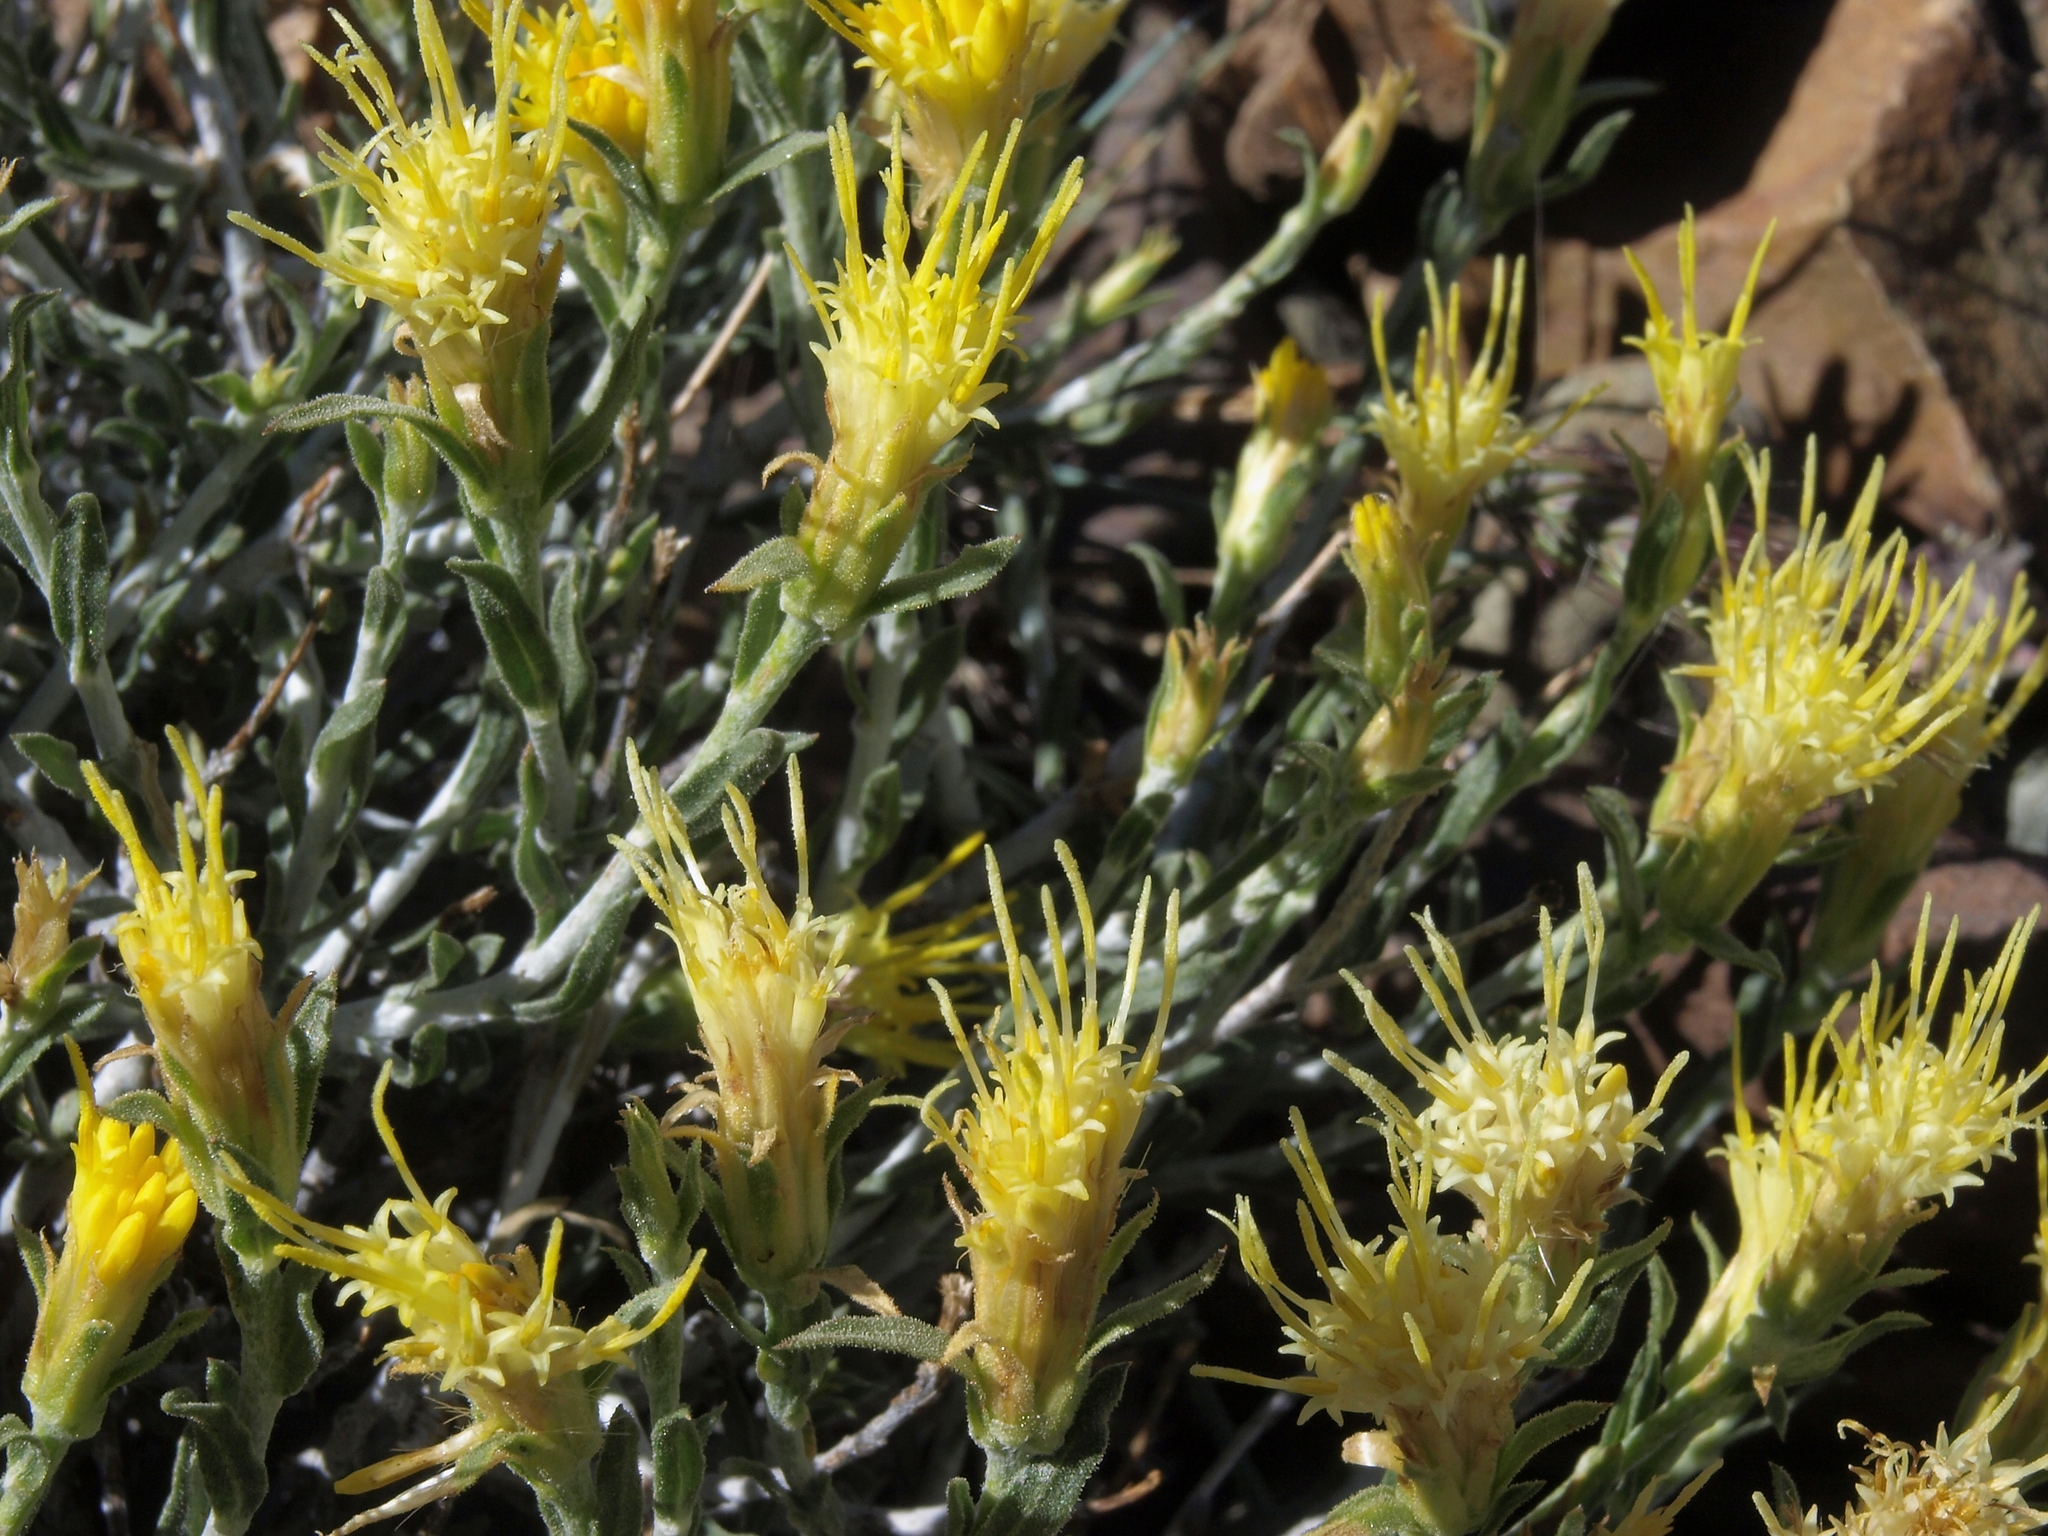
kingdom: Plantae
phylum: Tracheophyta
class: Magnoliopsida
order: Asterales
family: Asteraceae
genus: Ericameria
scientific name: Ericameria discoidea
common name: Sharp-scale goldenweed
